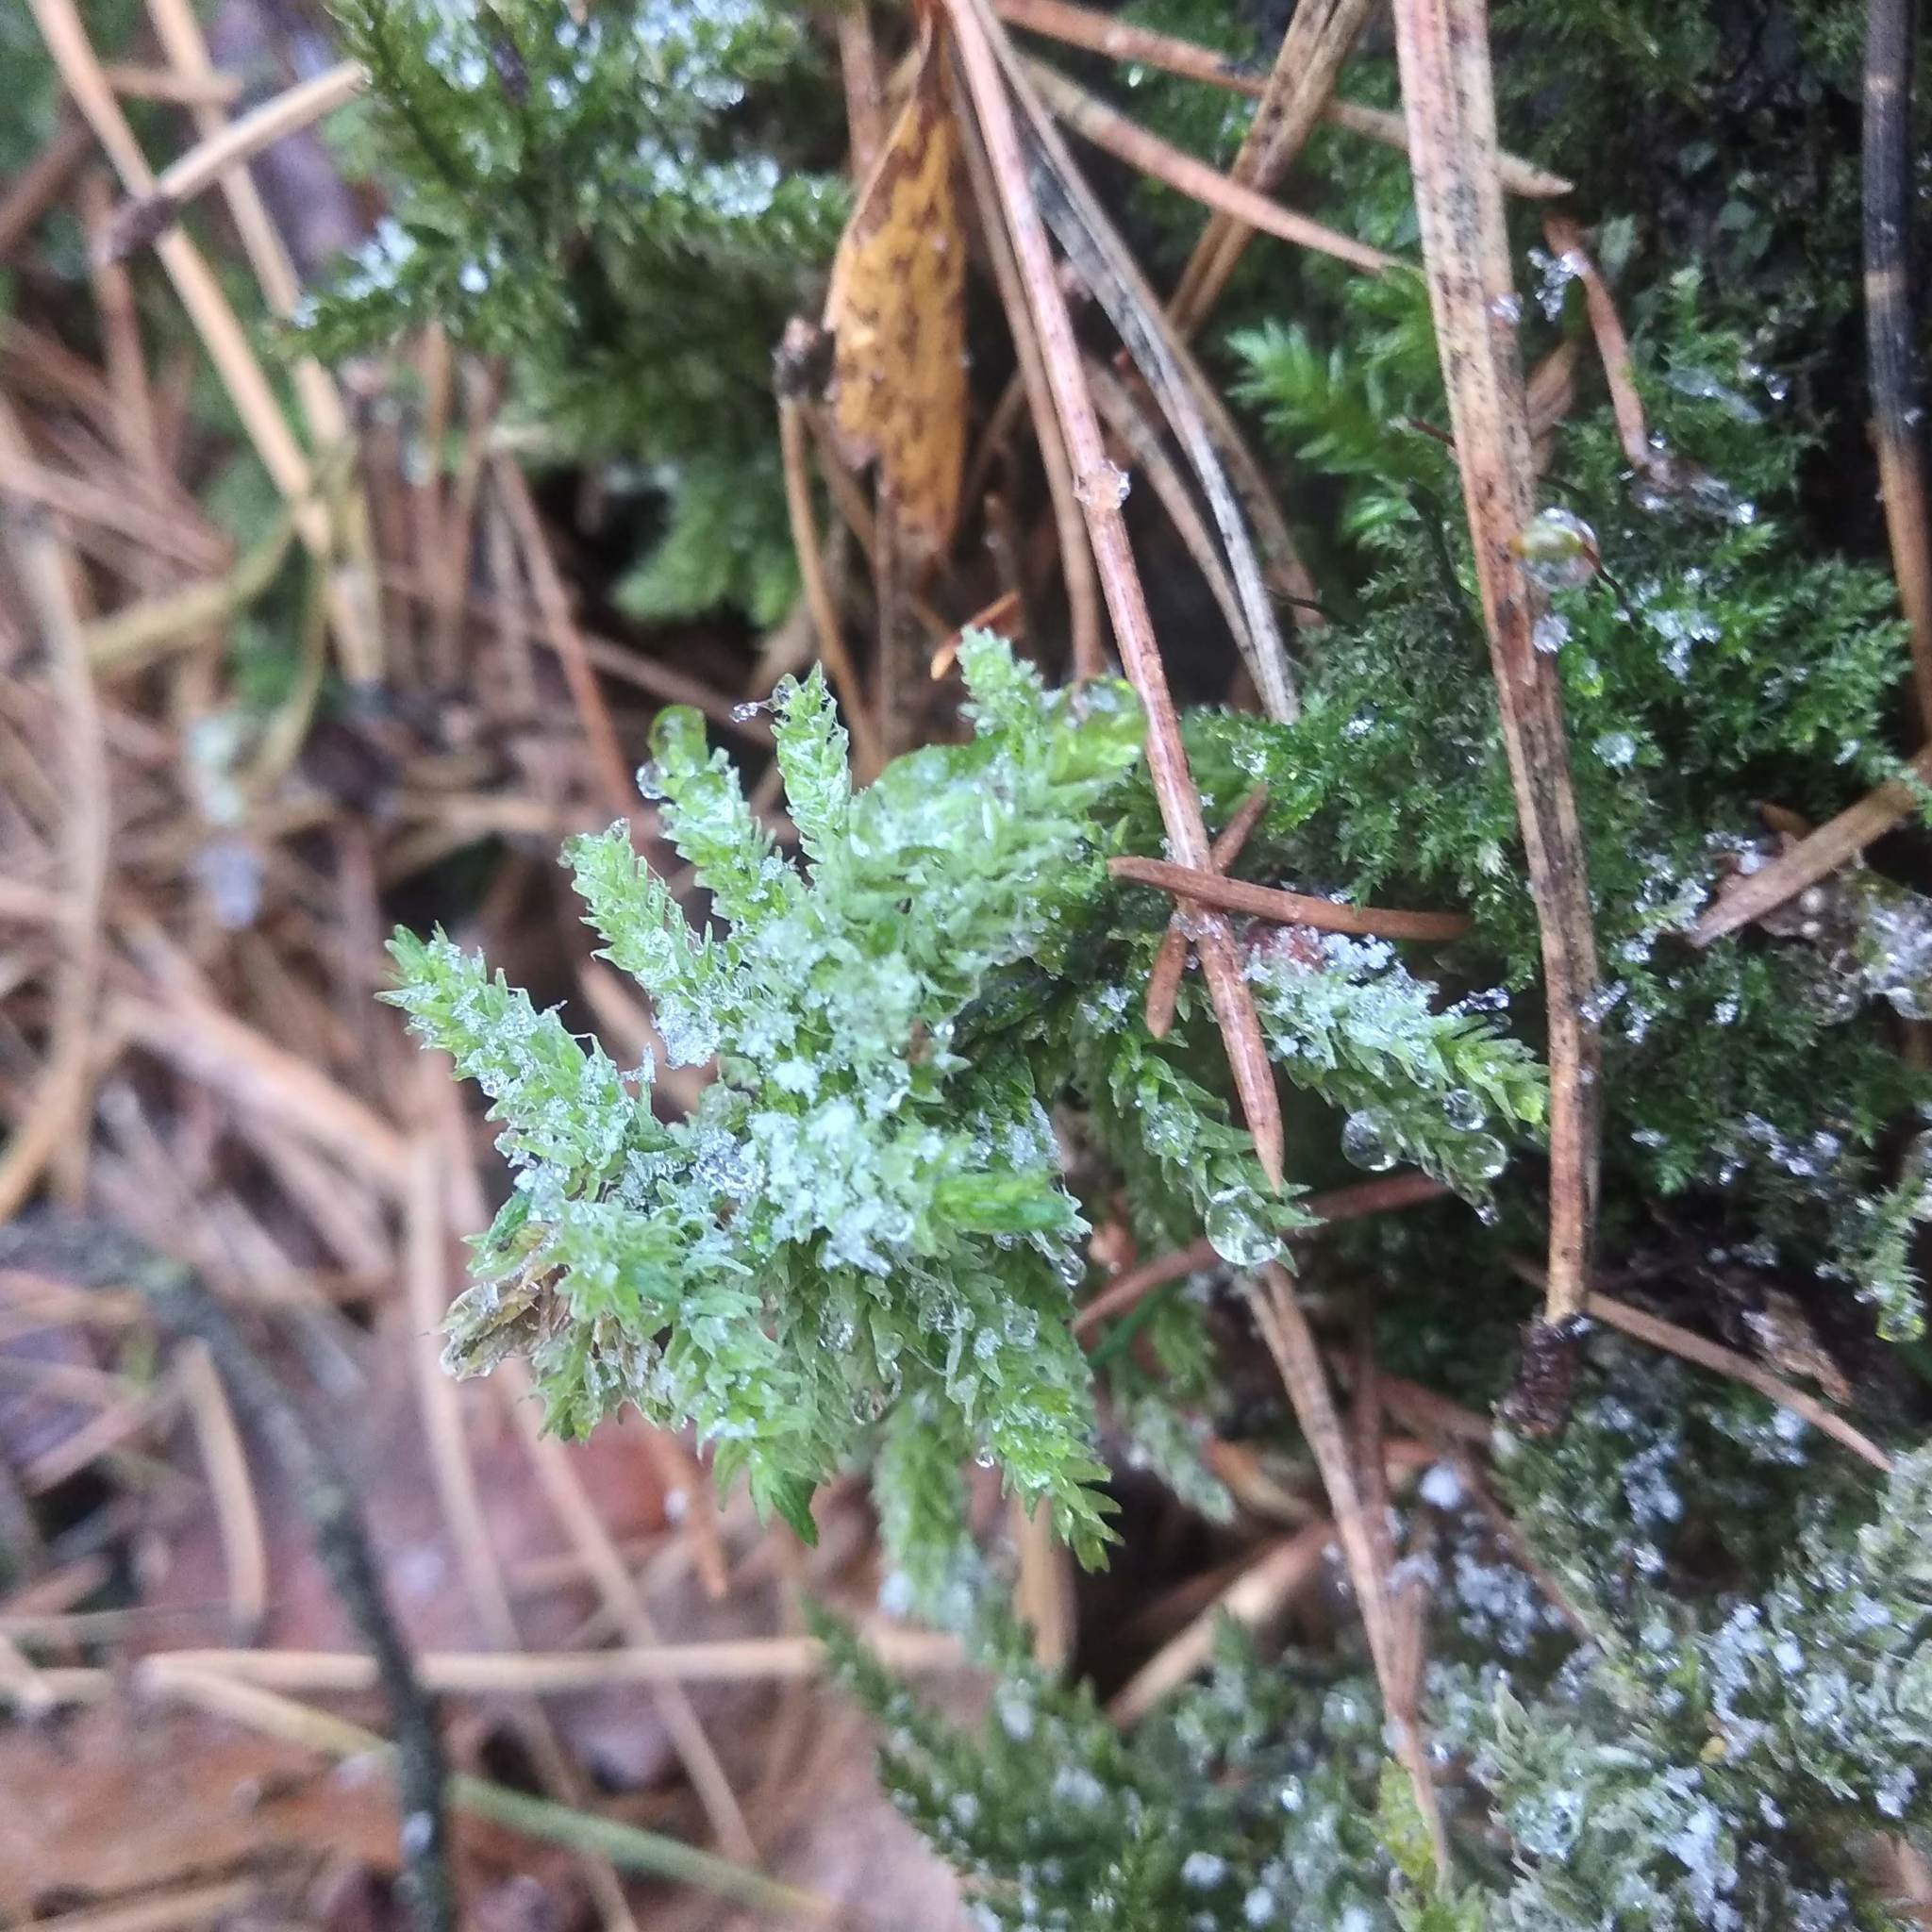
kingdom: Plantae
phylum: Bryophyta
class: Bryopsida
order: Hypnales
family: Climaciaceae
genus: Climacium
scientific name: Climacium dendroides
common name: Northern tree moss
